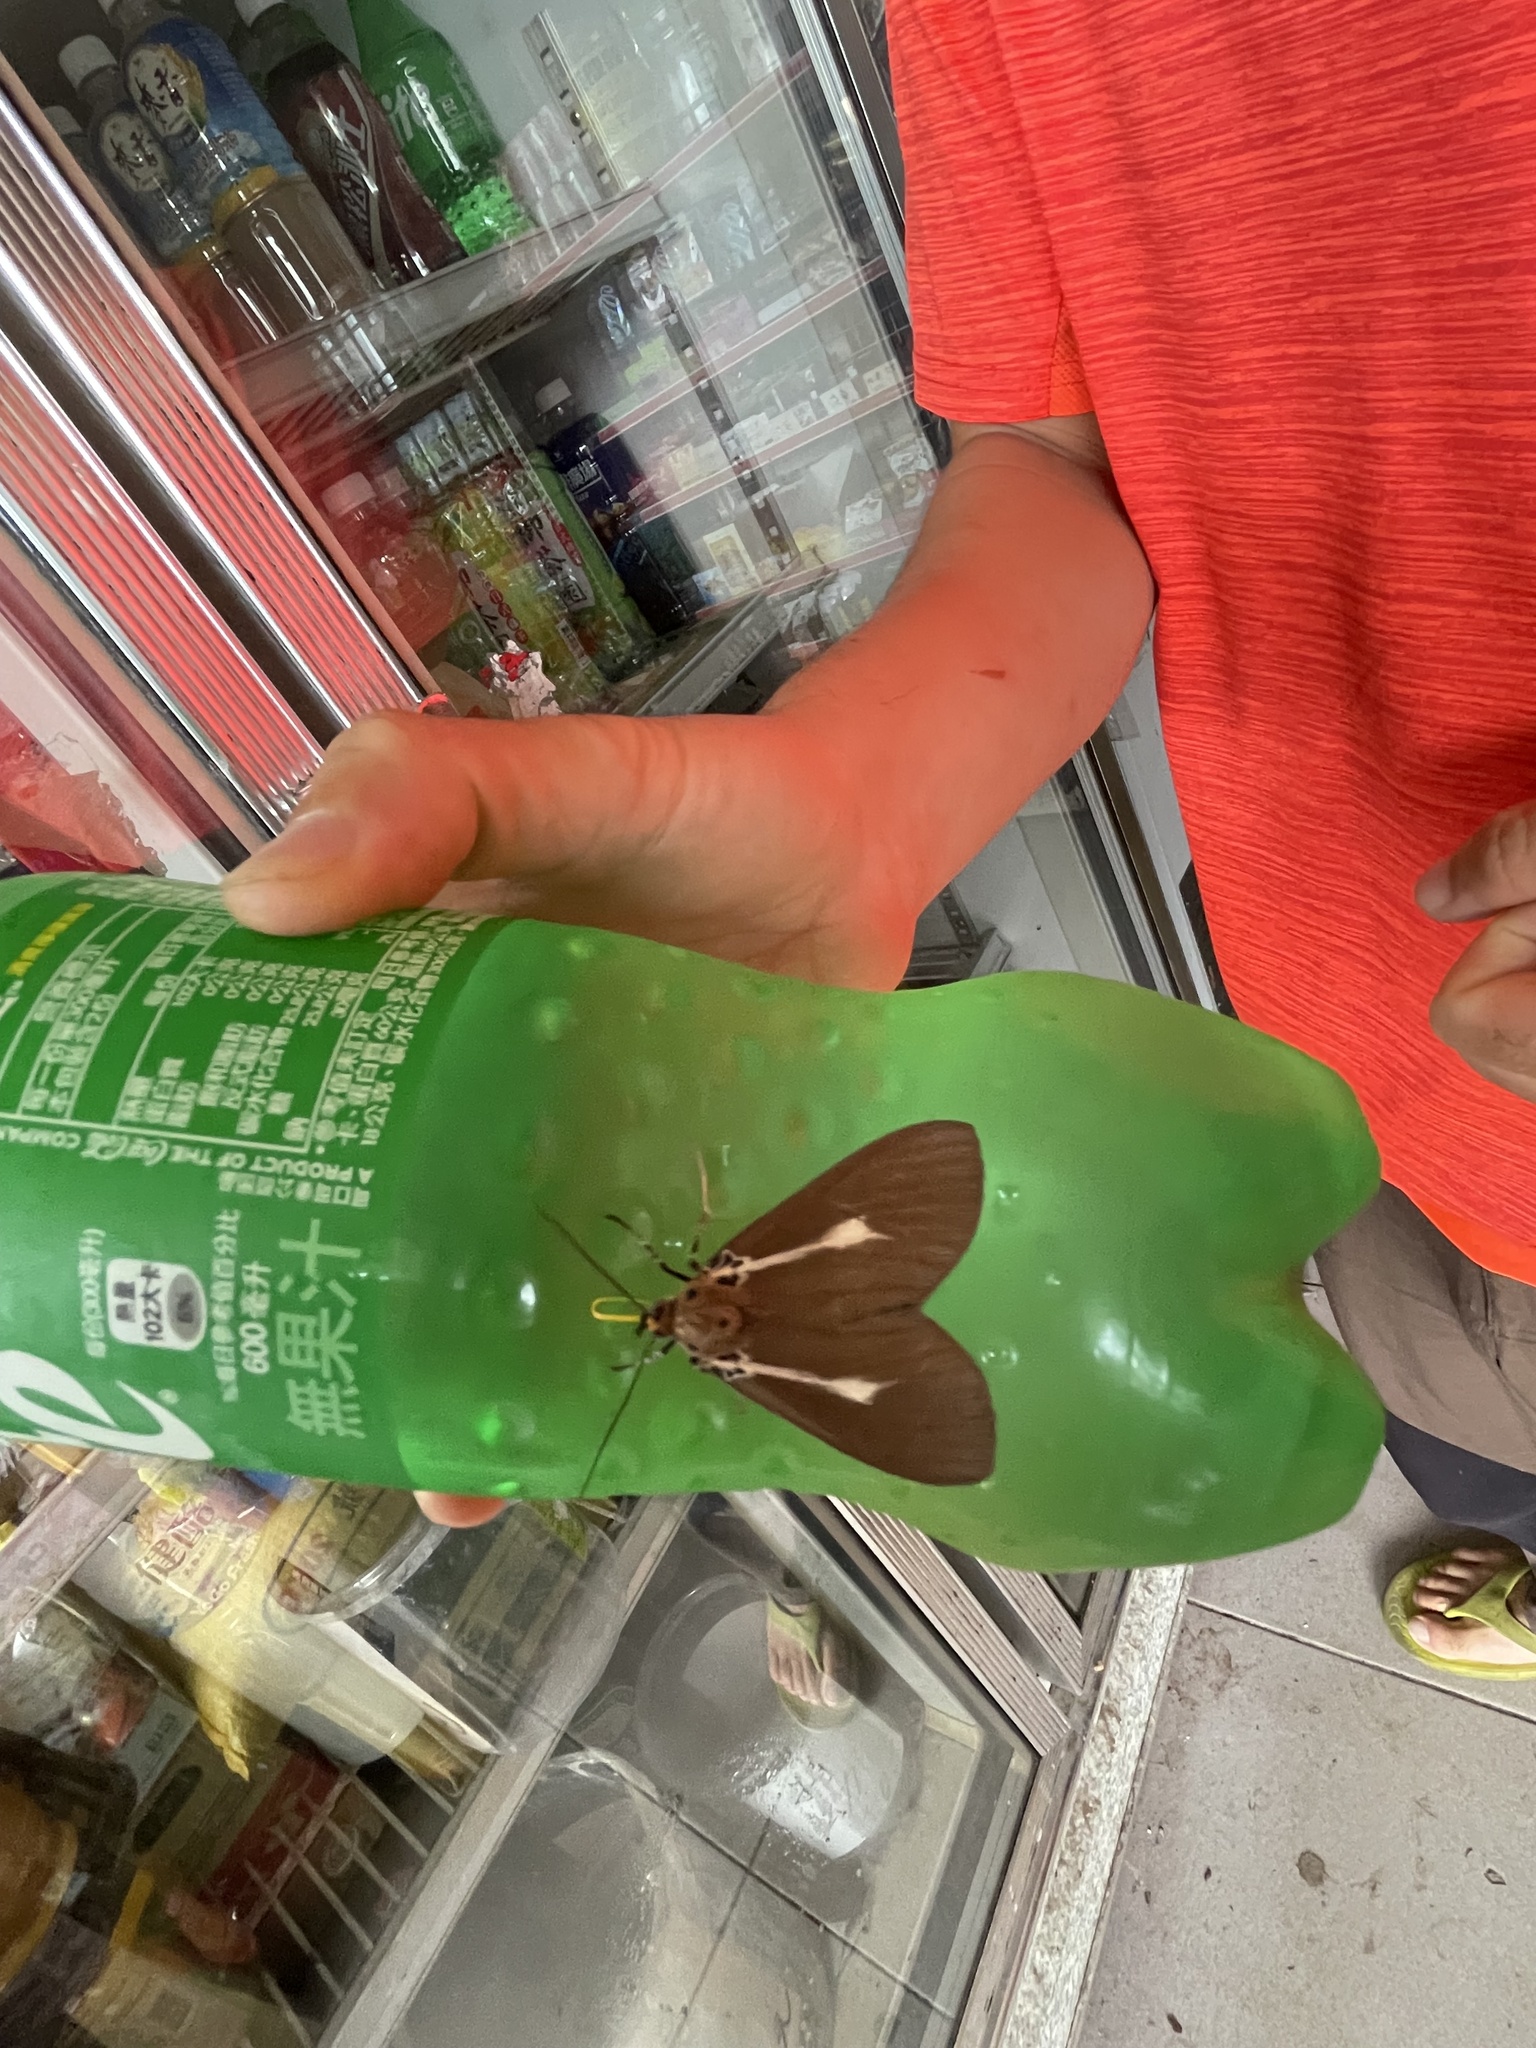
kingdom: Animalia
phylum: Arthropoda
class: Insecta
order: Lepidoptera
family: Erebidae
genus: Asota
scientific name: Asota heliconia
